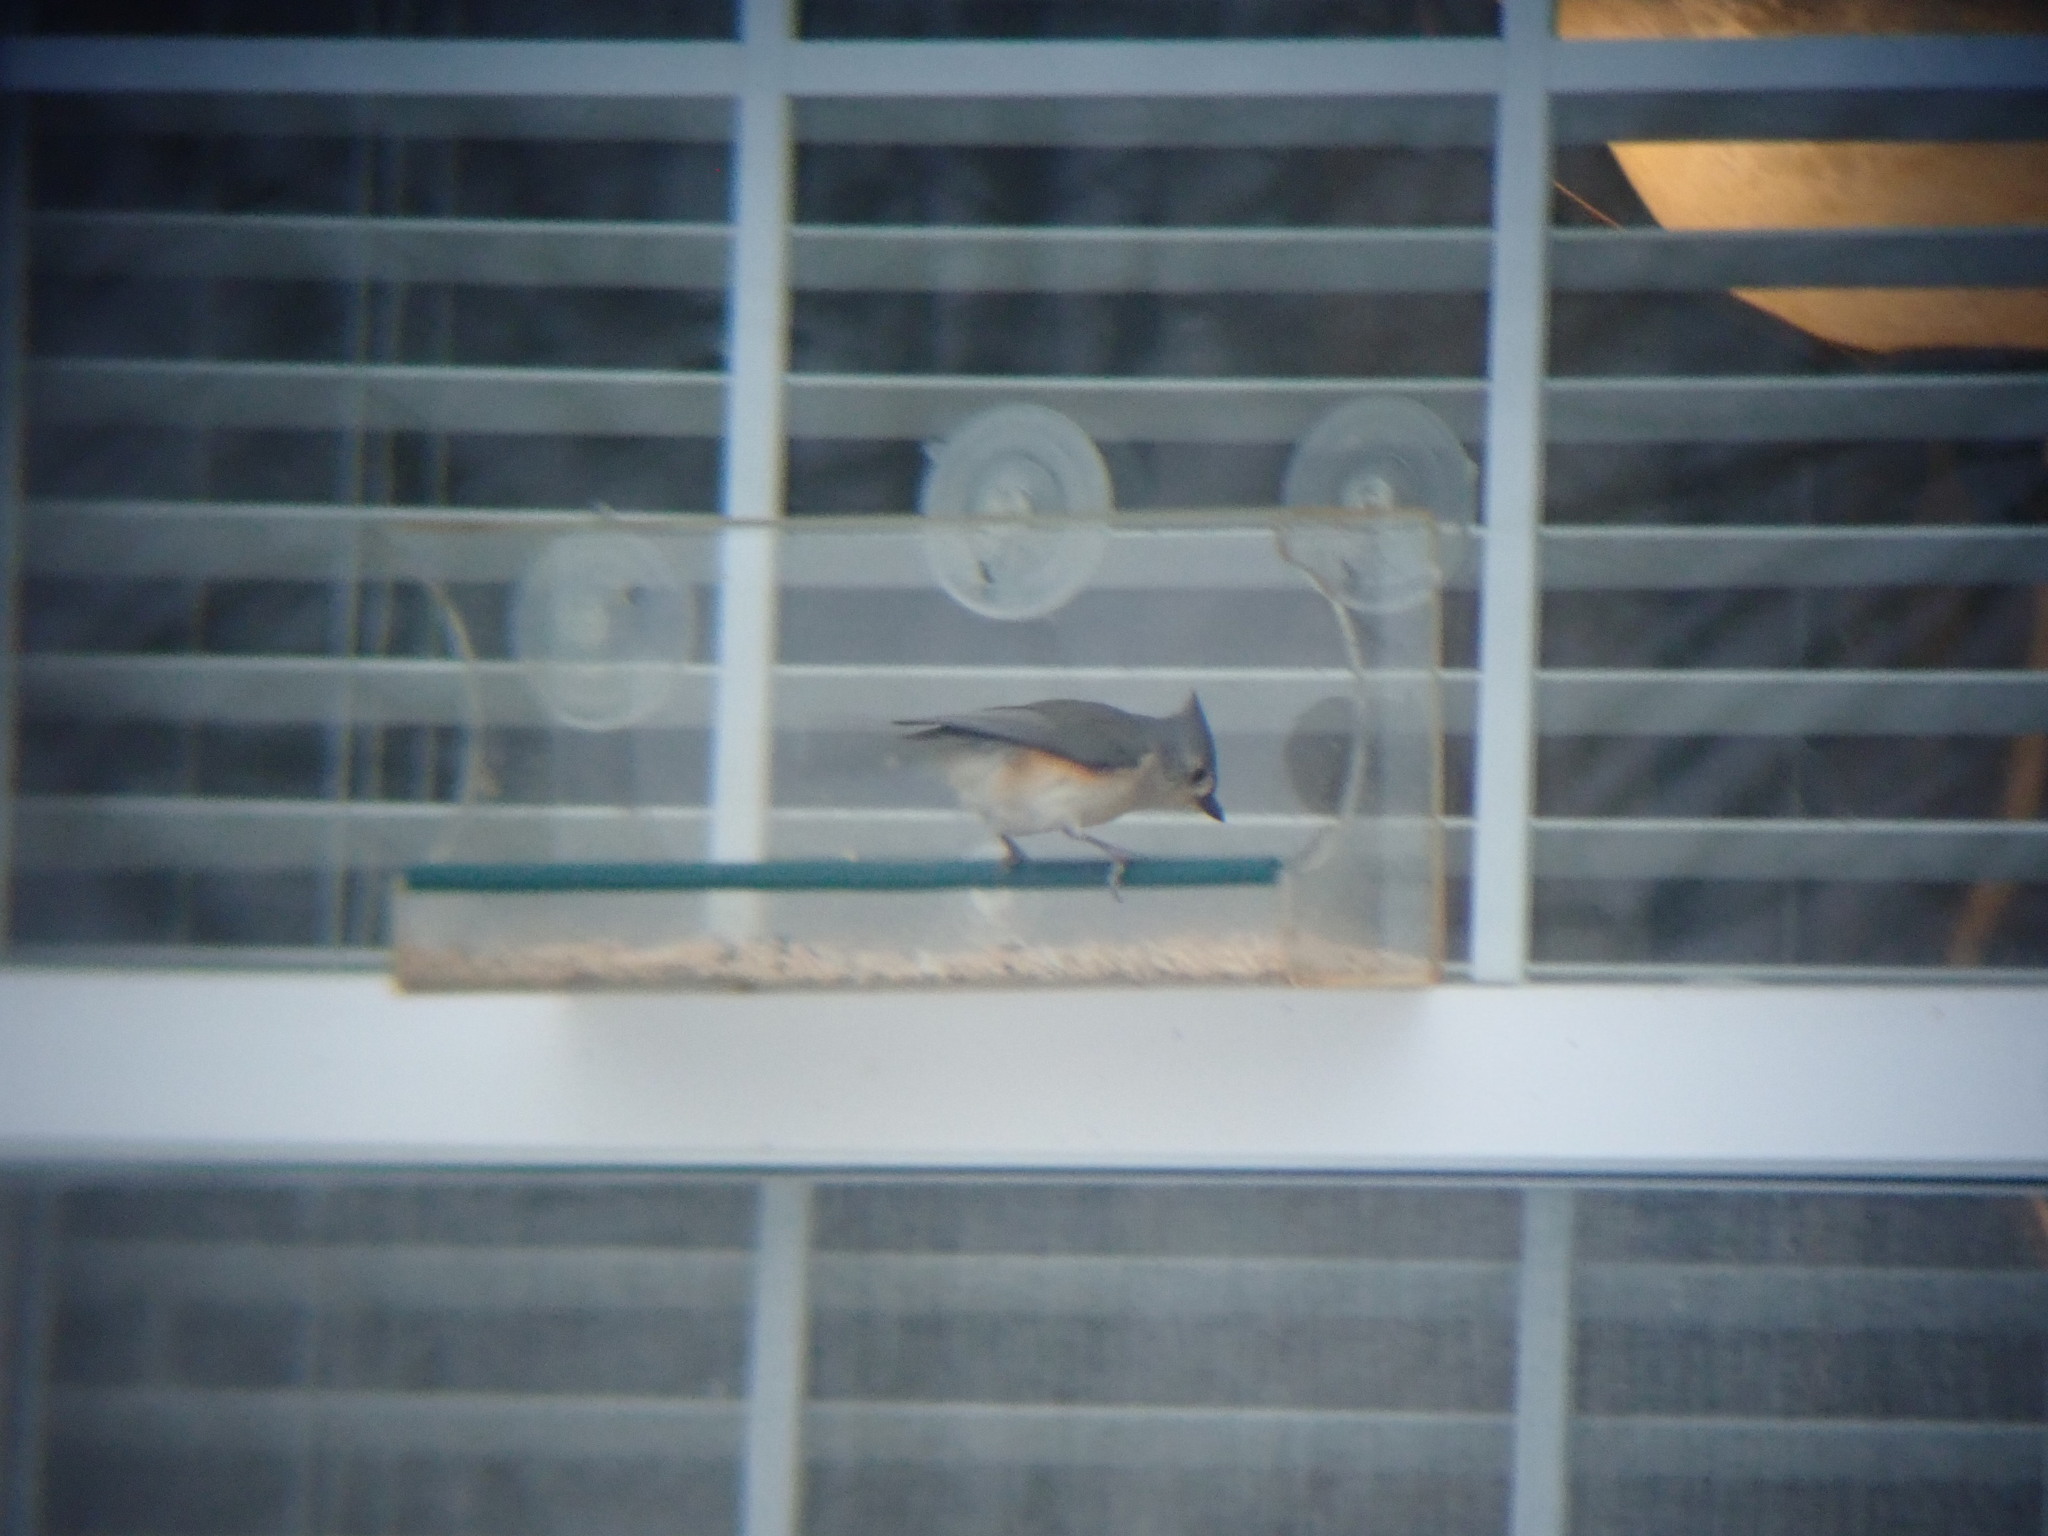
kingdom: Animalia
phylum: Chordata
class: Aves
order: Passeriformes
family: Paridae
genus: Baeolophus
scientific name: Baeolophus bicolor
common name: Tufted titmouse
